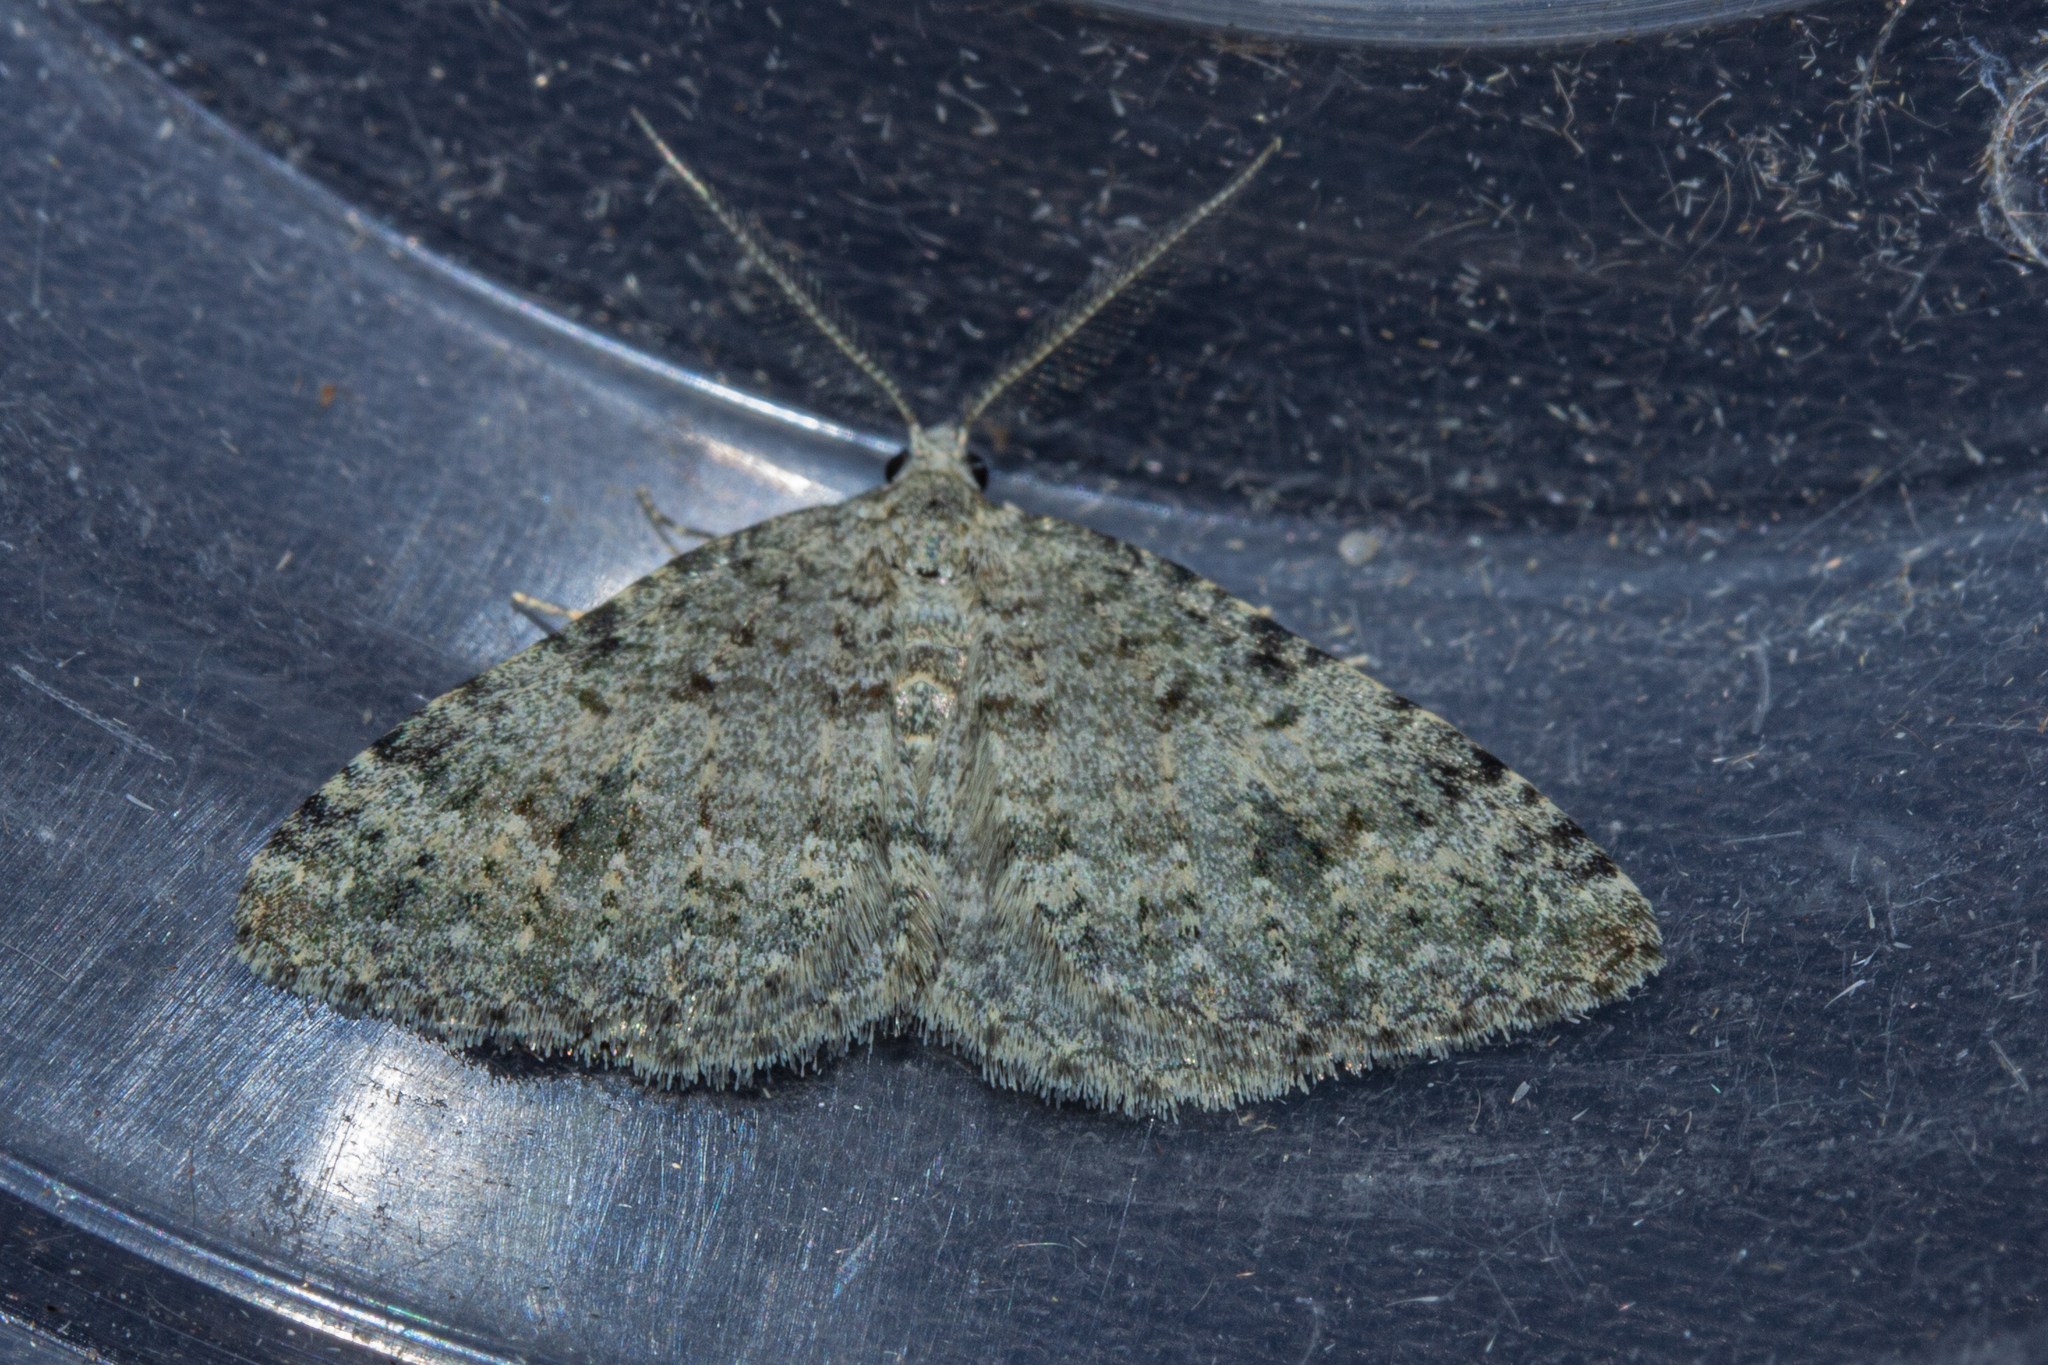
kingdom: Animalia
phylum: Arthropoda
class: Insecta
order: Lepidoptera
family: Geometridae
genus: Helastia
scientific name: Helastia corcularia
